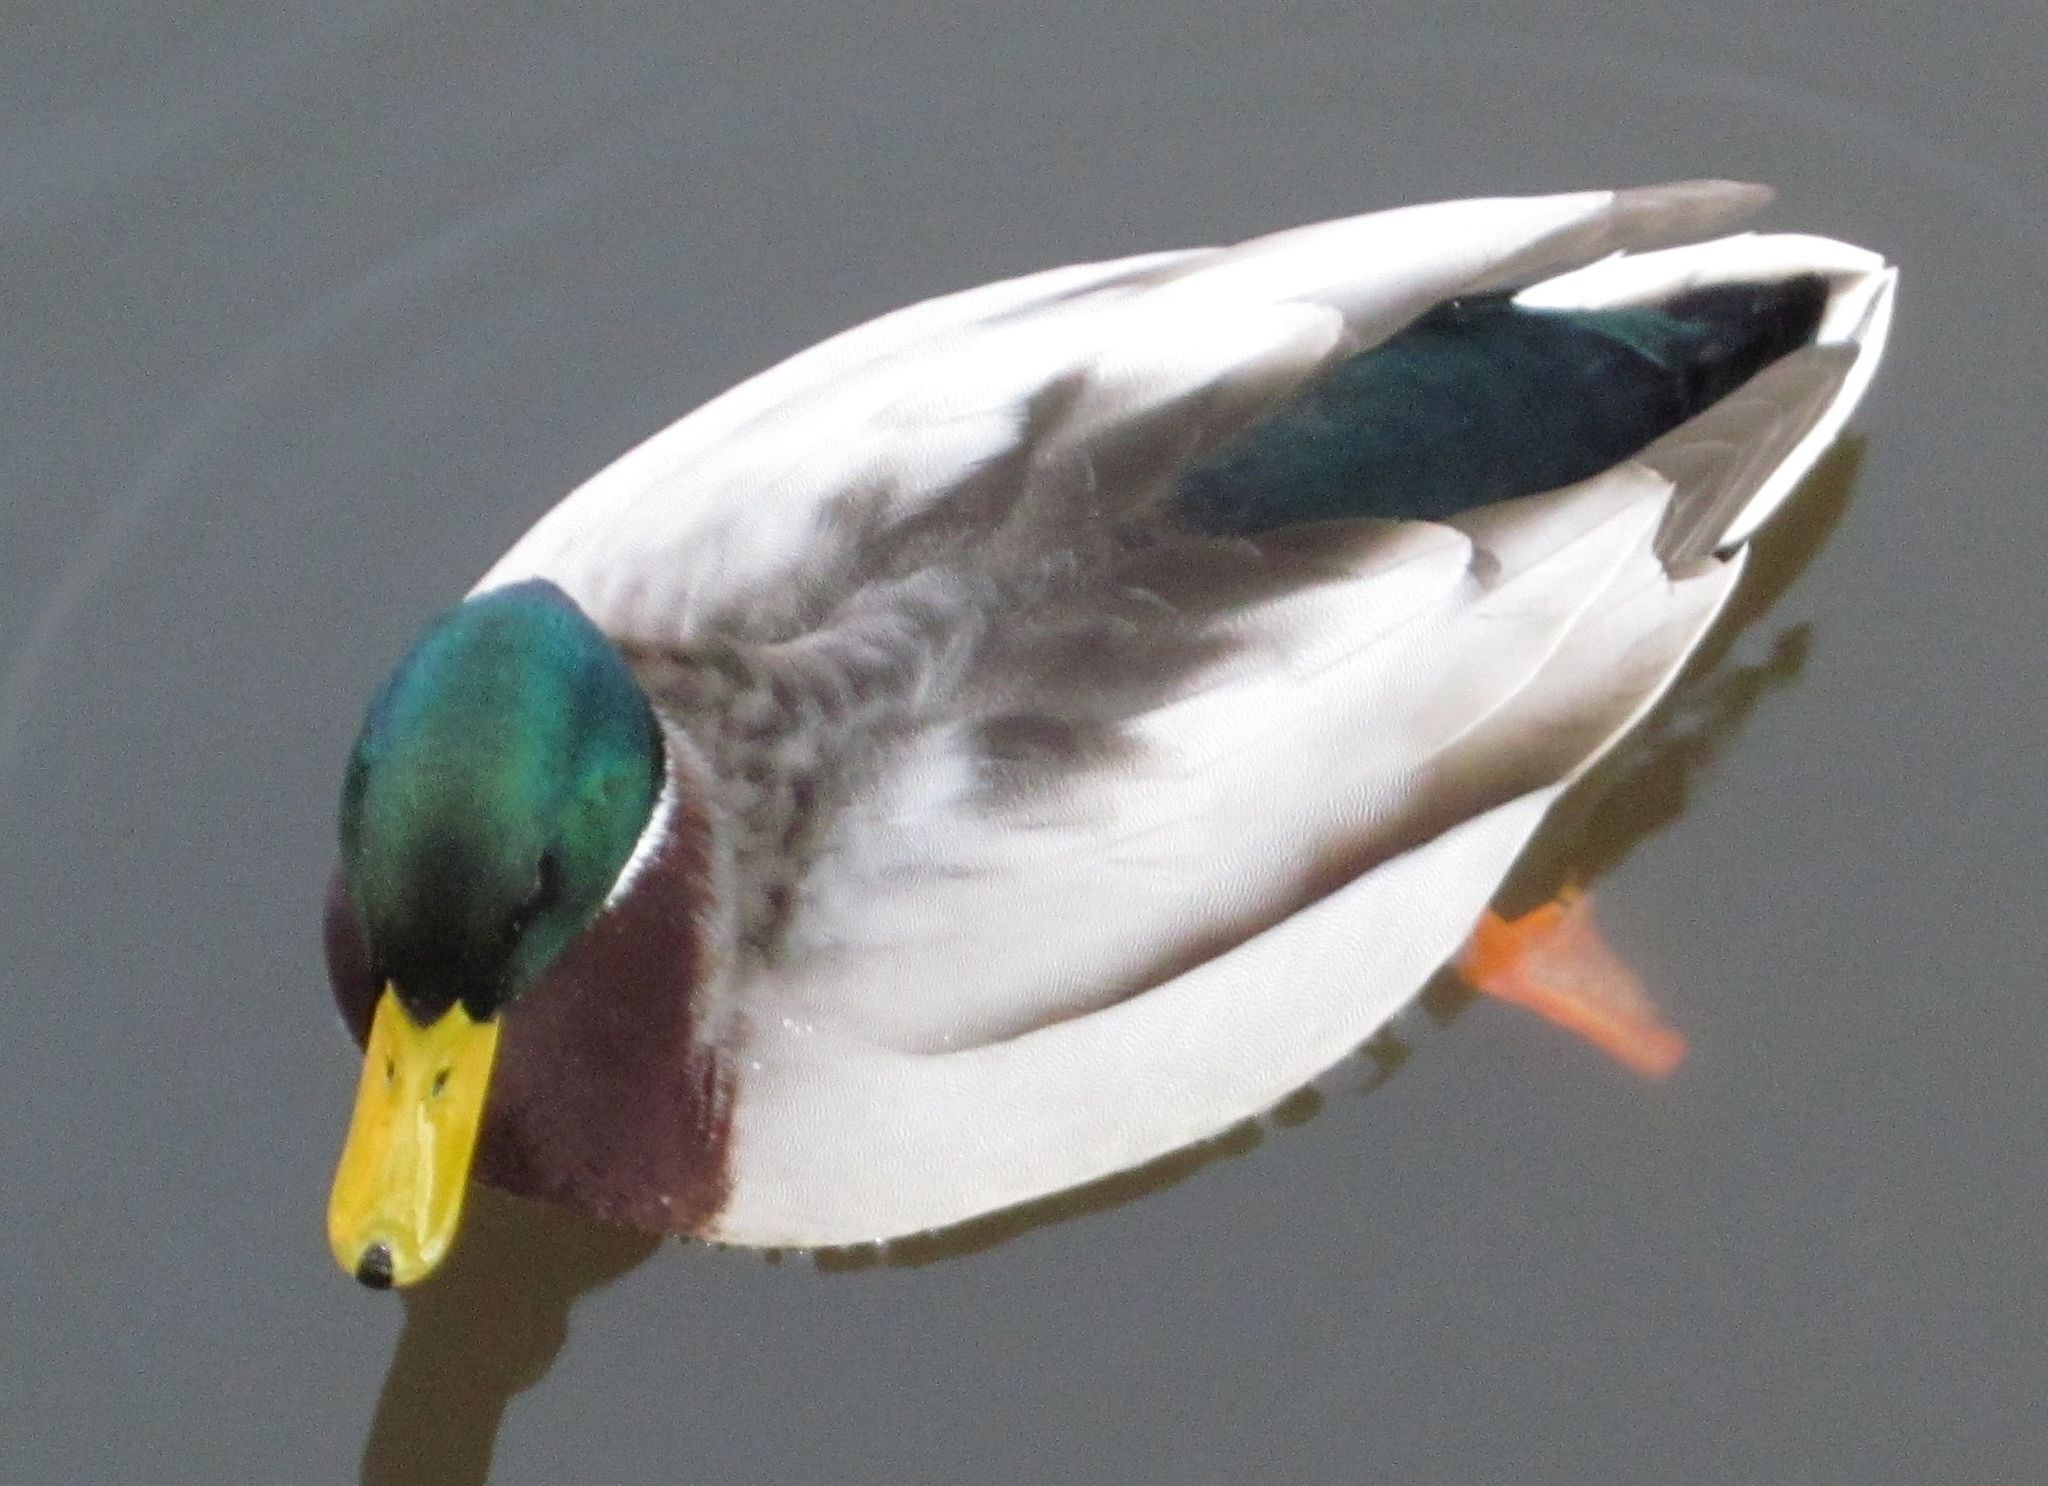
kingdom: Animalia
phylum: Chordata
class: Aves
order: Anseriformes
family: Anatidae
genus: Anas
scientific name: Anas platyrhynchos
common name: Mallard
